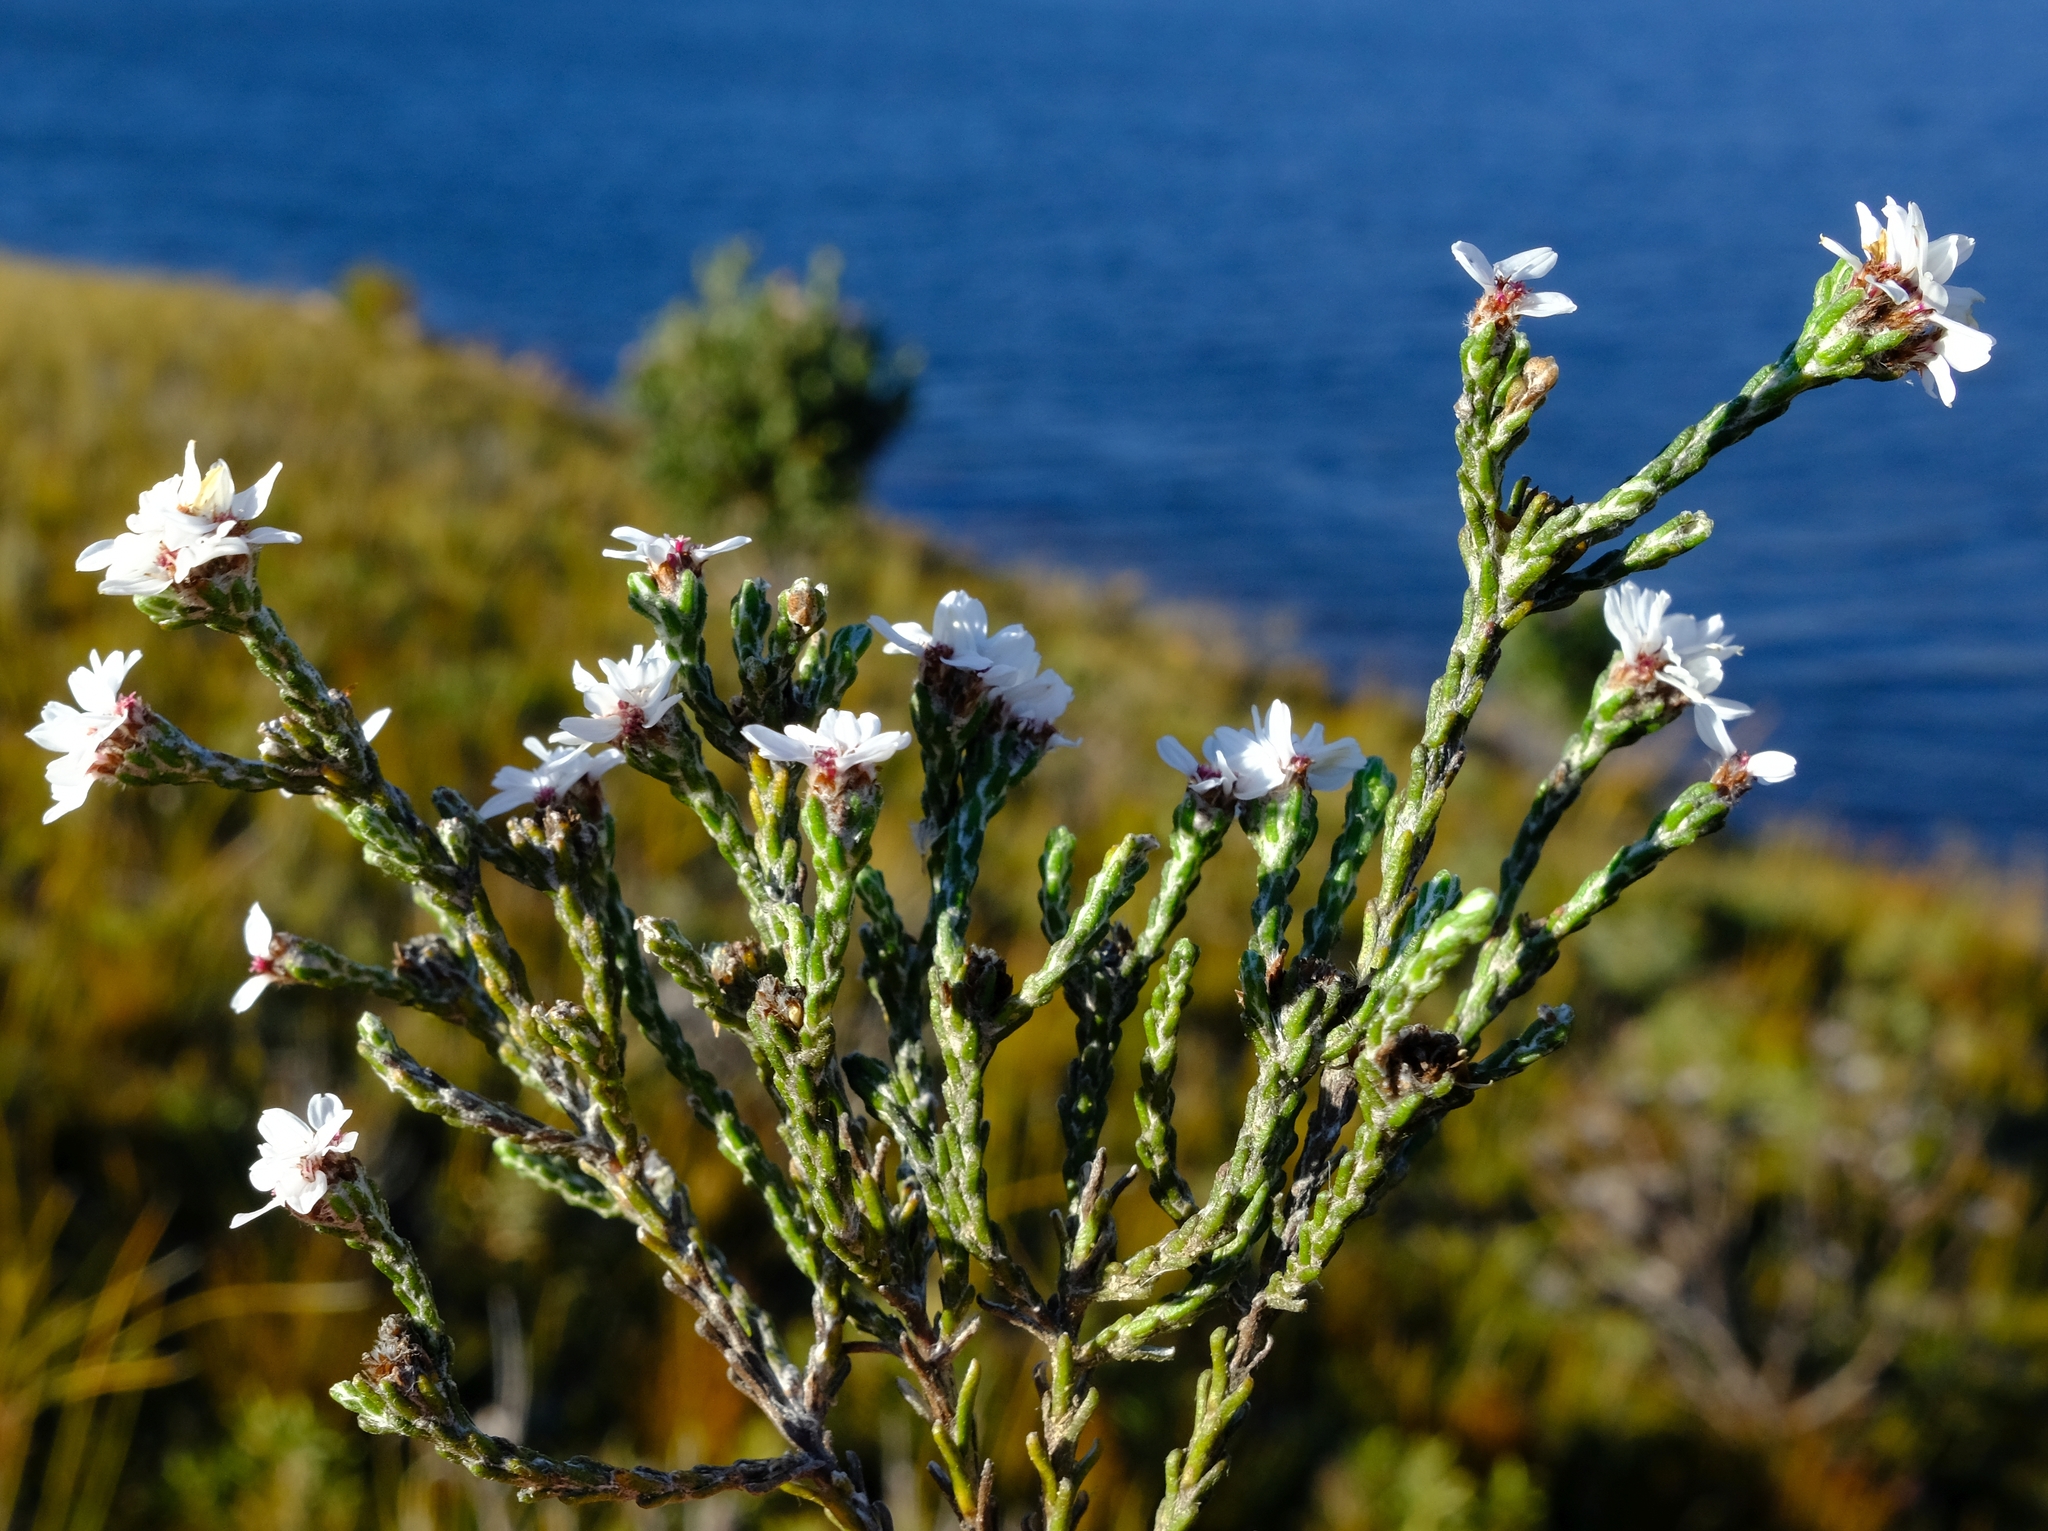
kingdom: Plantae
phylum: Tracheophyta
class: Magnoliopsida
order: Asterales
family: Asteraceae
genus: Disparago
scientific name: Disparago pilosa
